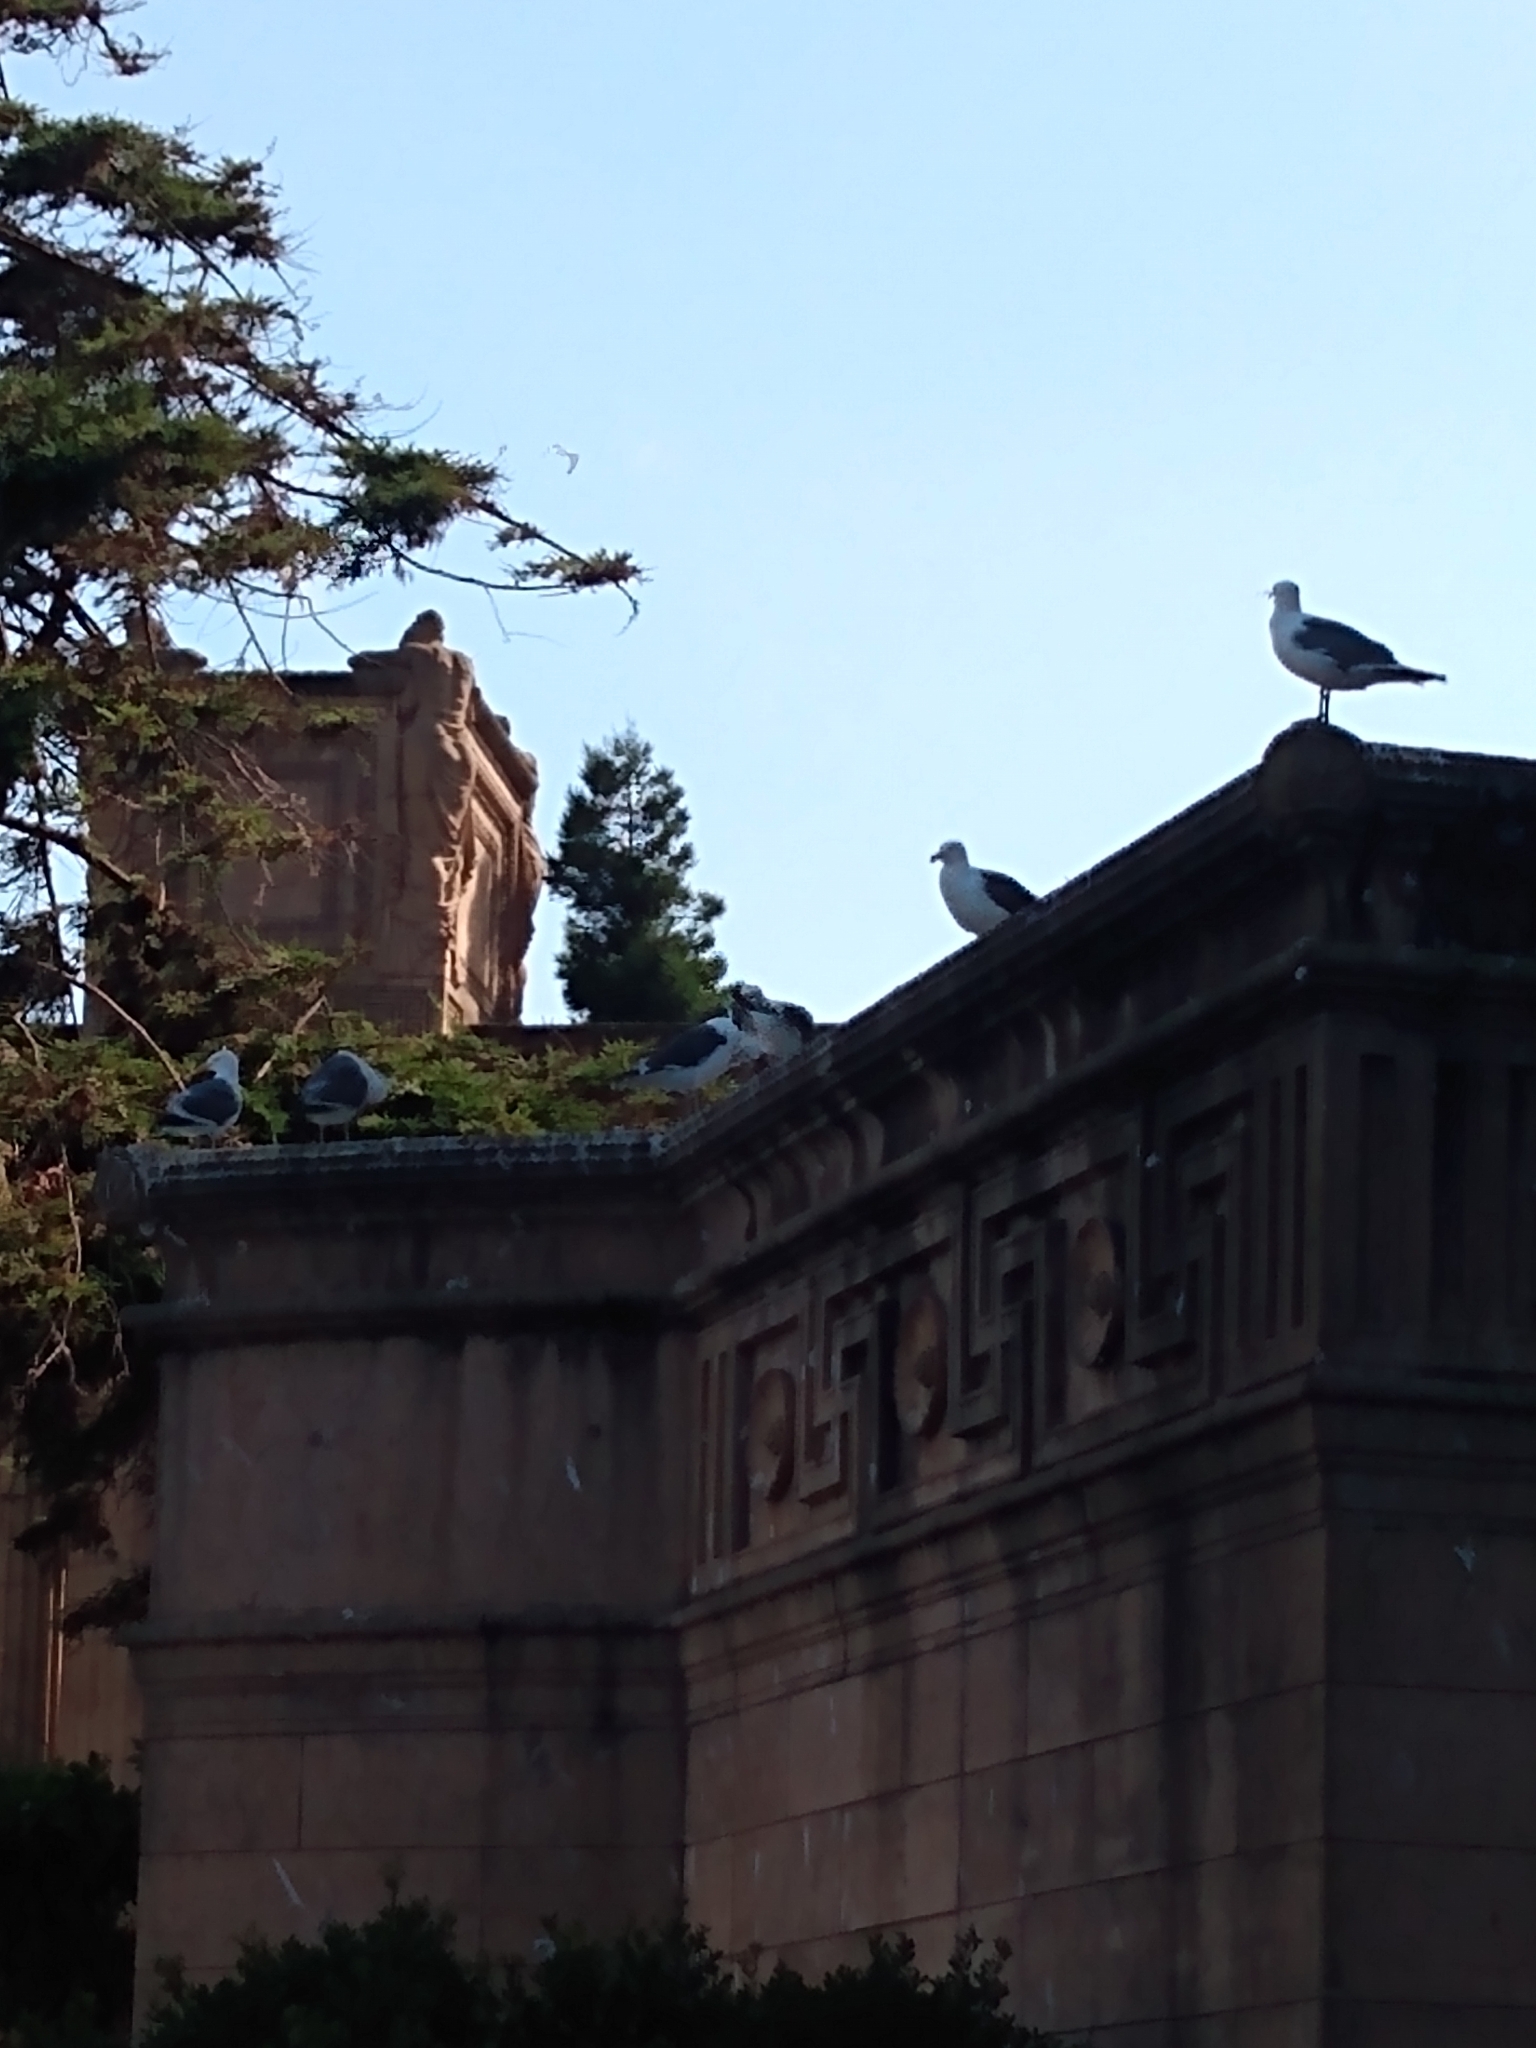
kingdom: Animalia
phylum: Chordata
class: Aves
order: Charadriiformes
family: Laridae
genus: Larus
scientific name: Larus occidentalis
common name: Western gull
